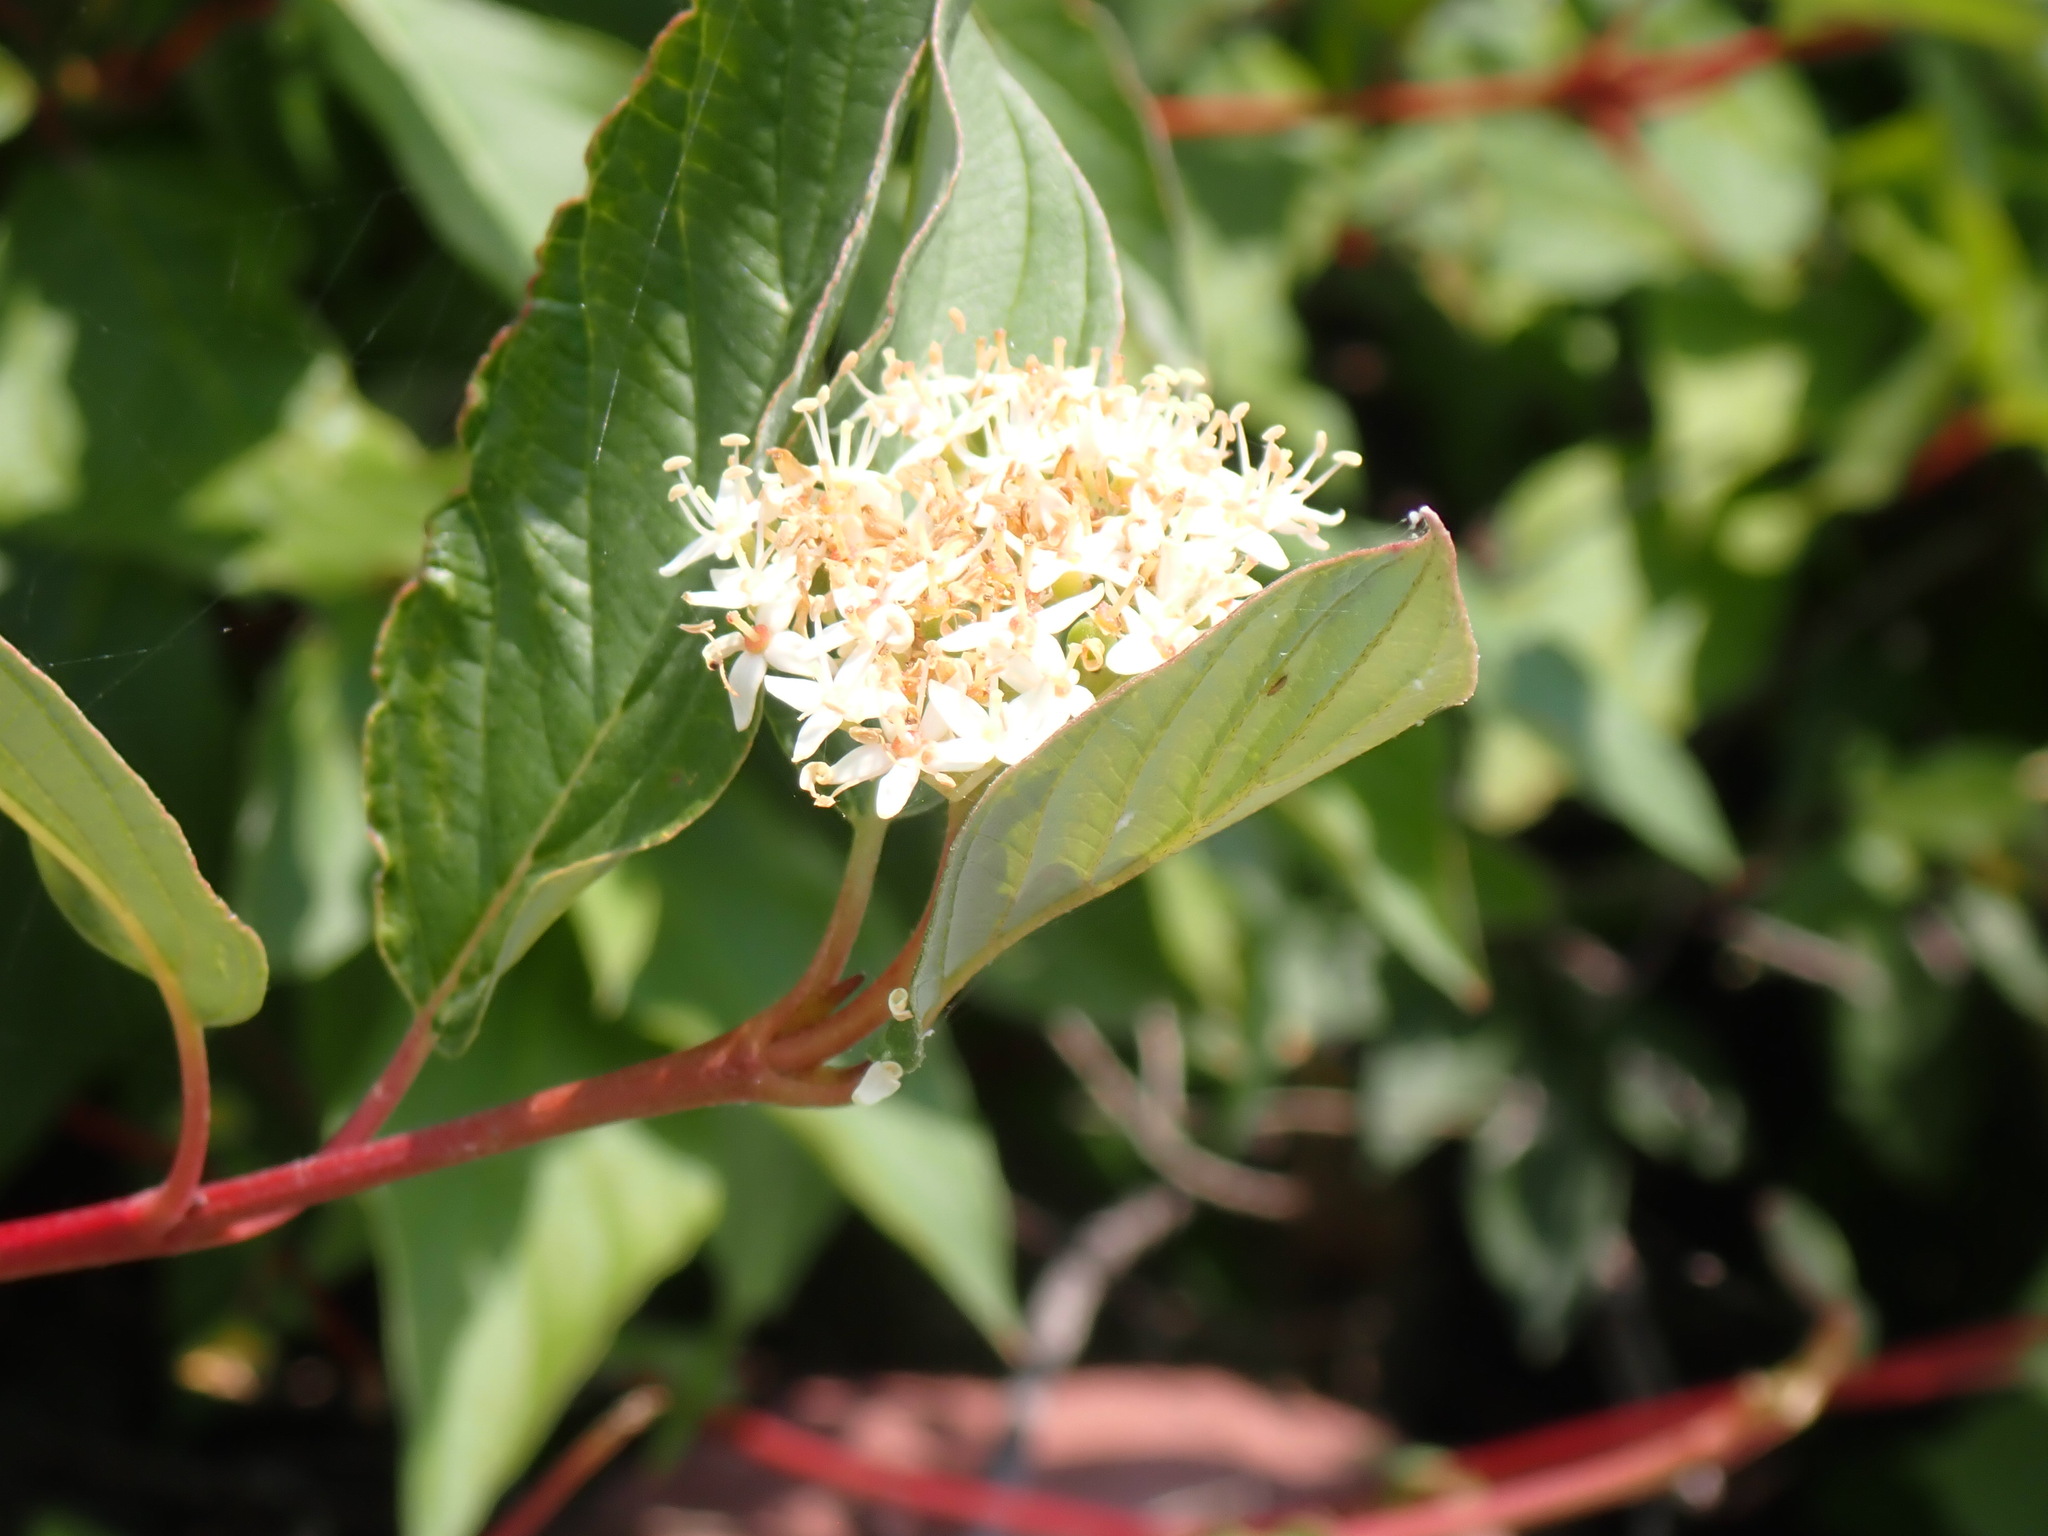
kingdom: Plantae
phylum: Tracheophyta
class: Magnoliopsida
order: Cornales
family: Cornaceae
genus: Cornus
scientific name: Cornus sericea
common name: Red-osier dogwood
